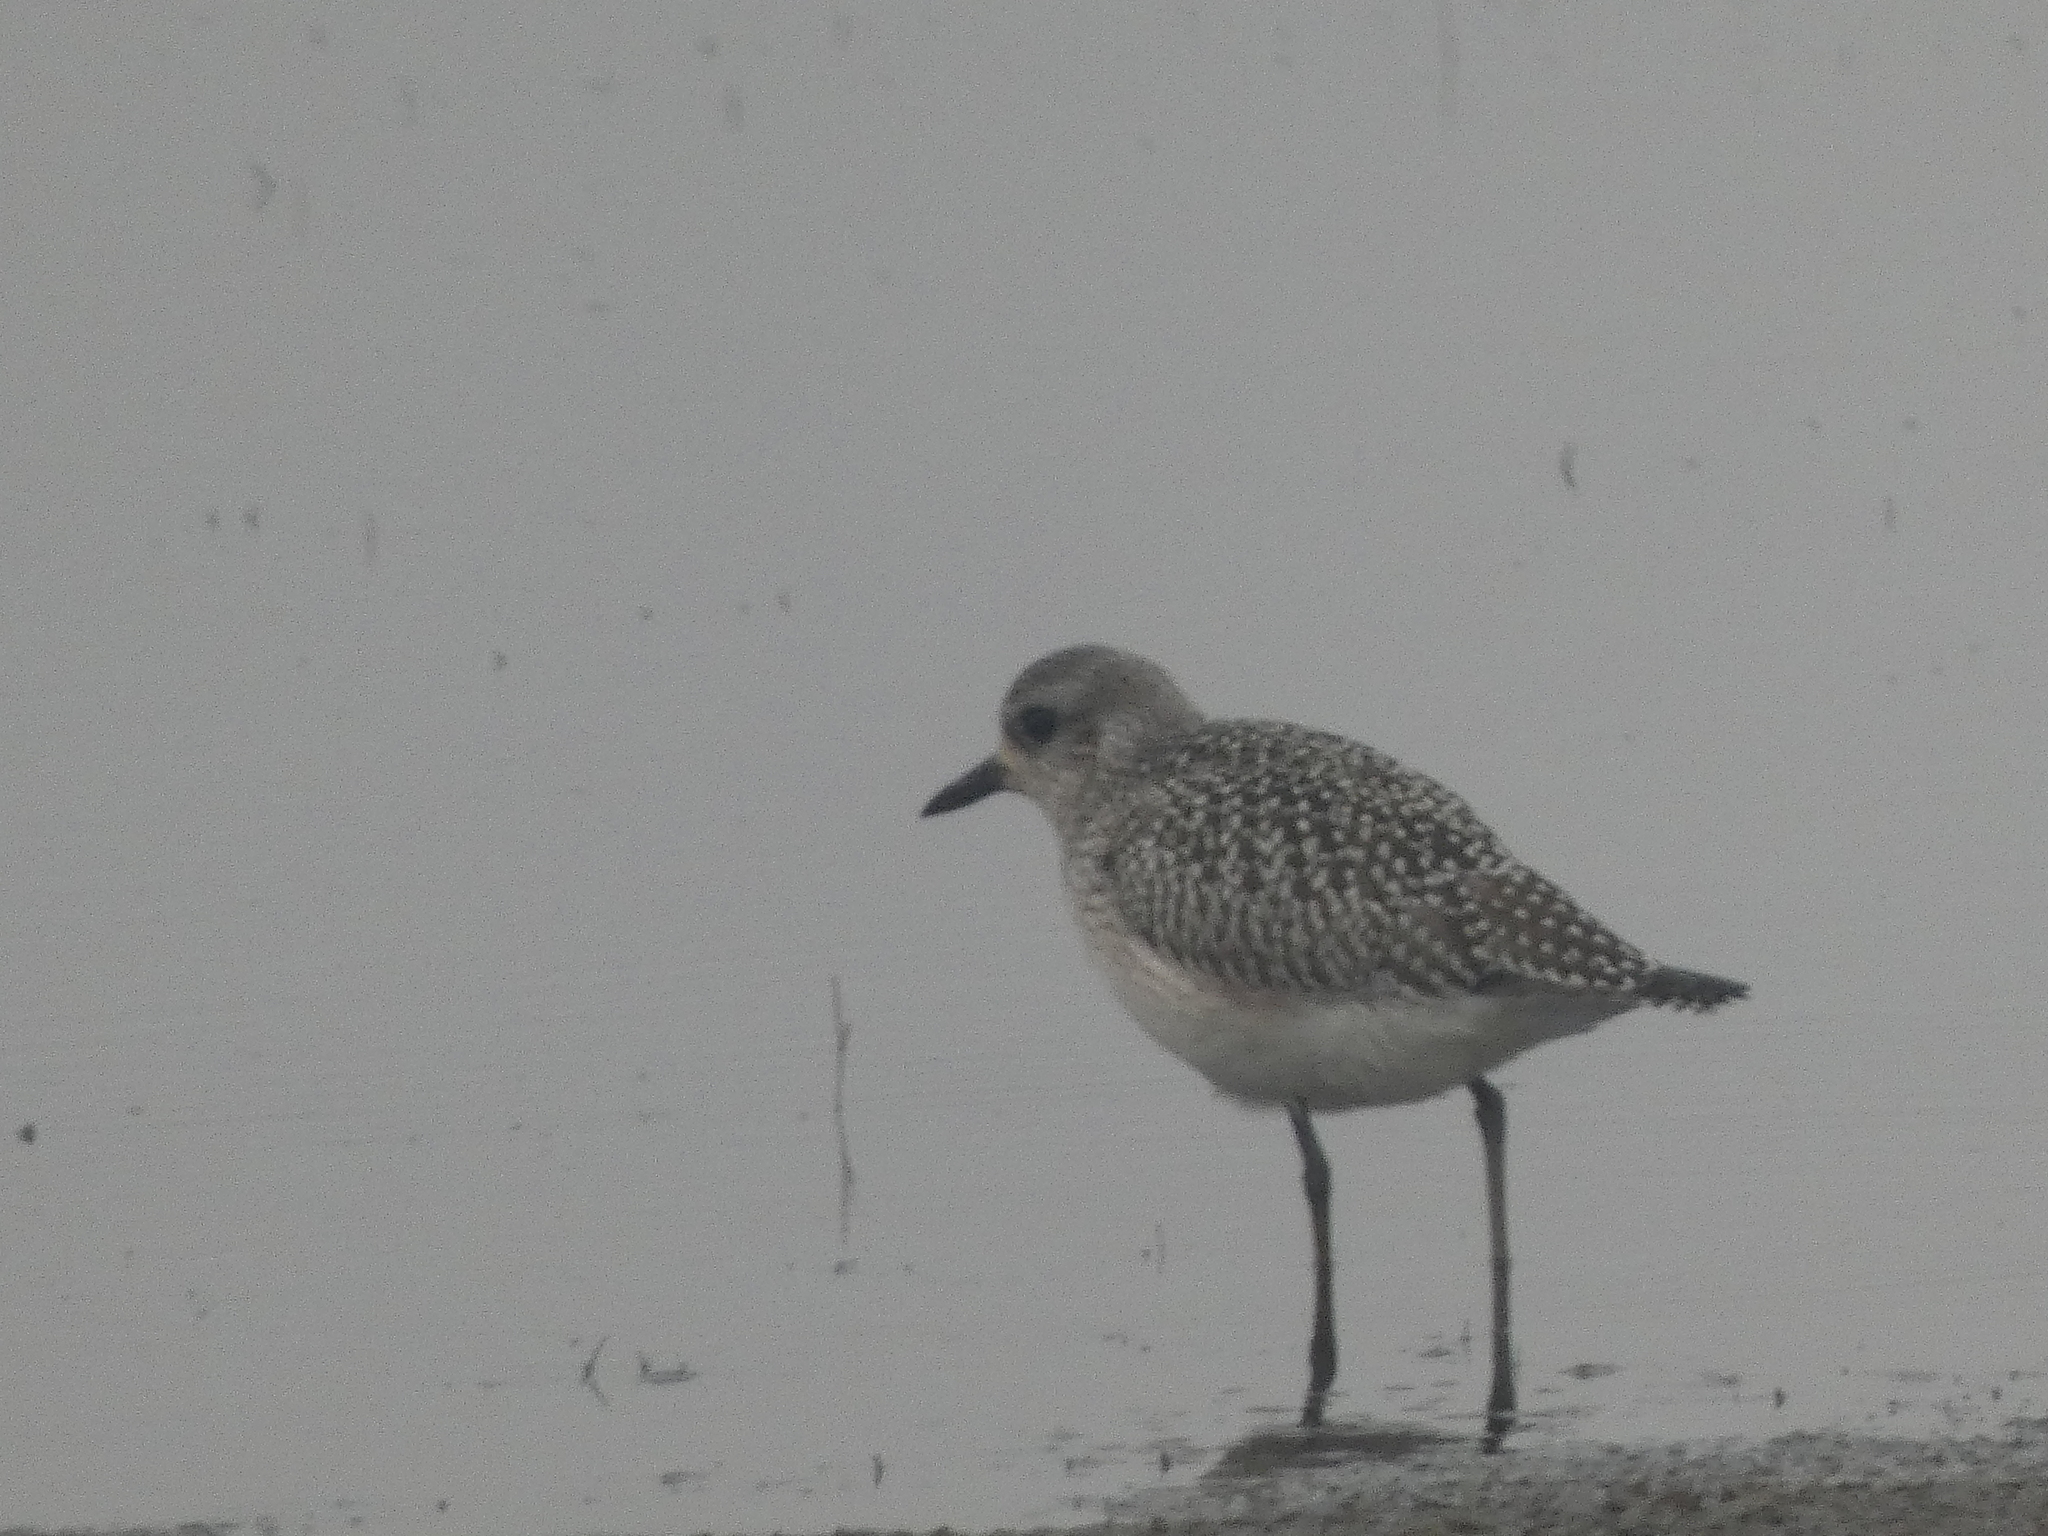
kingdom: Animalia
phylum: Chordata
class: Aves
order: Charadriiformes
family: Charadriidae
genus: Pluvialis
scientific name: Pluvialis squatarola
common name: Grey plover
